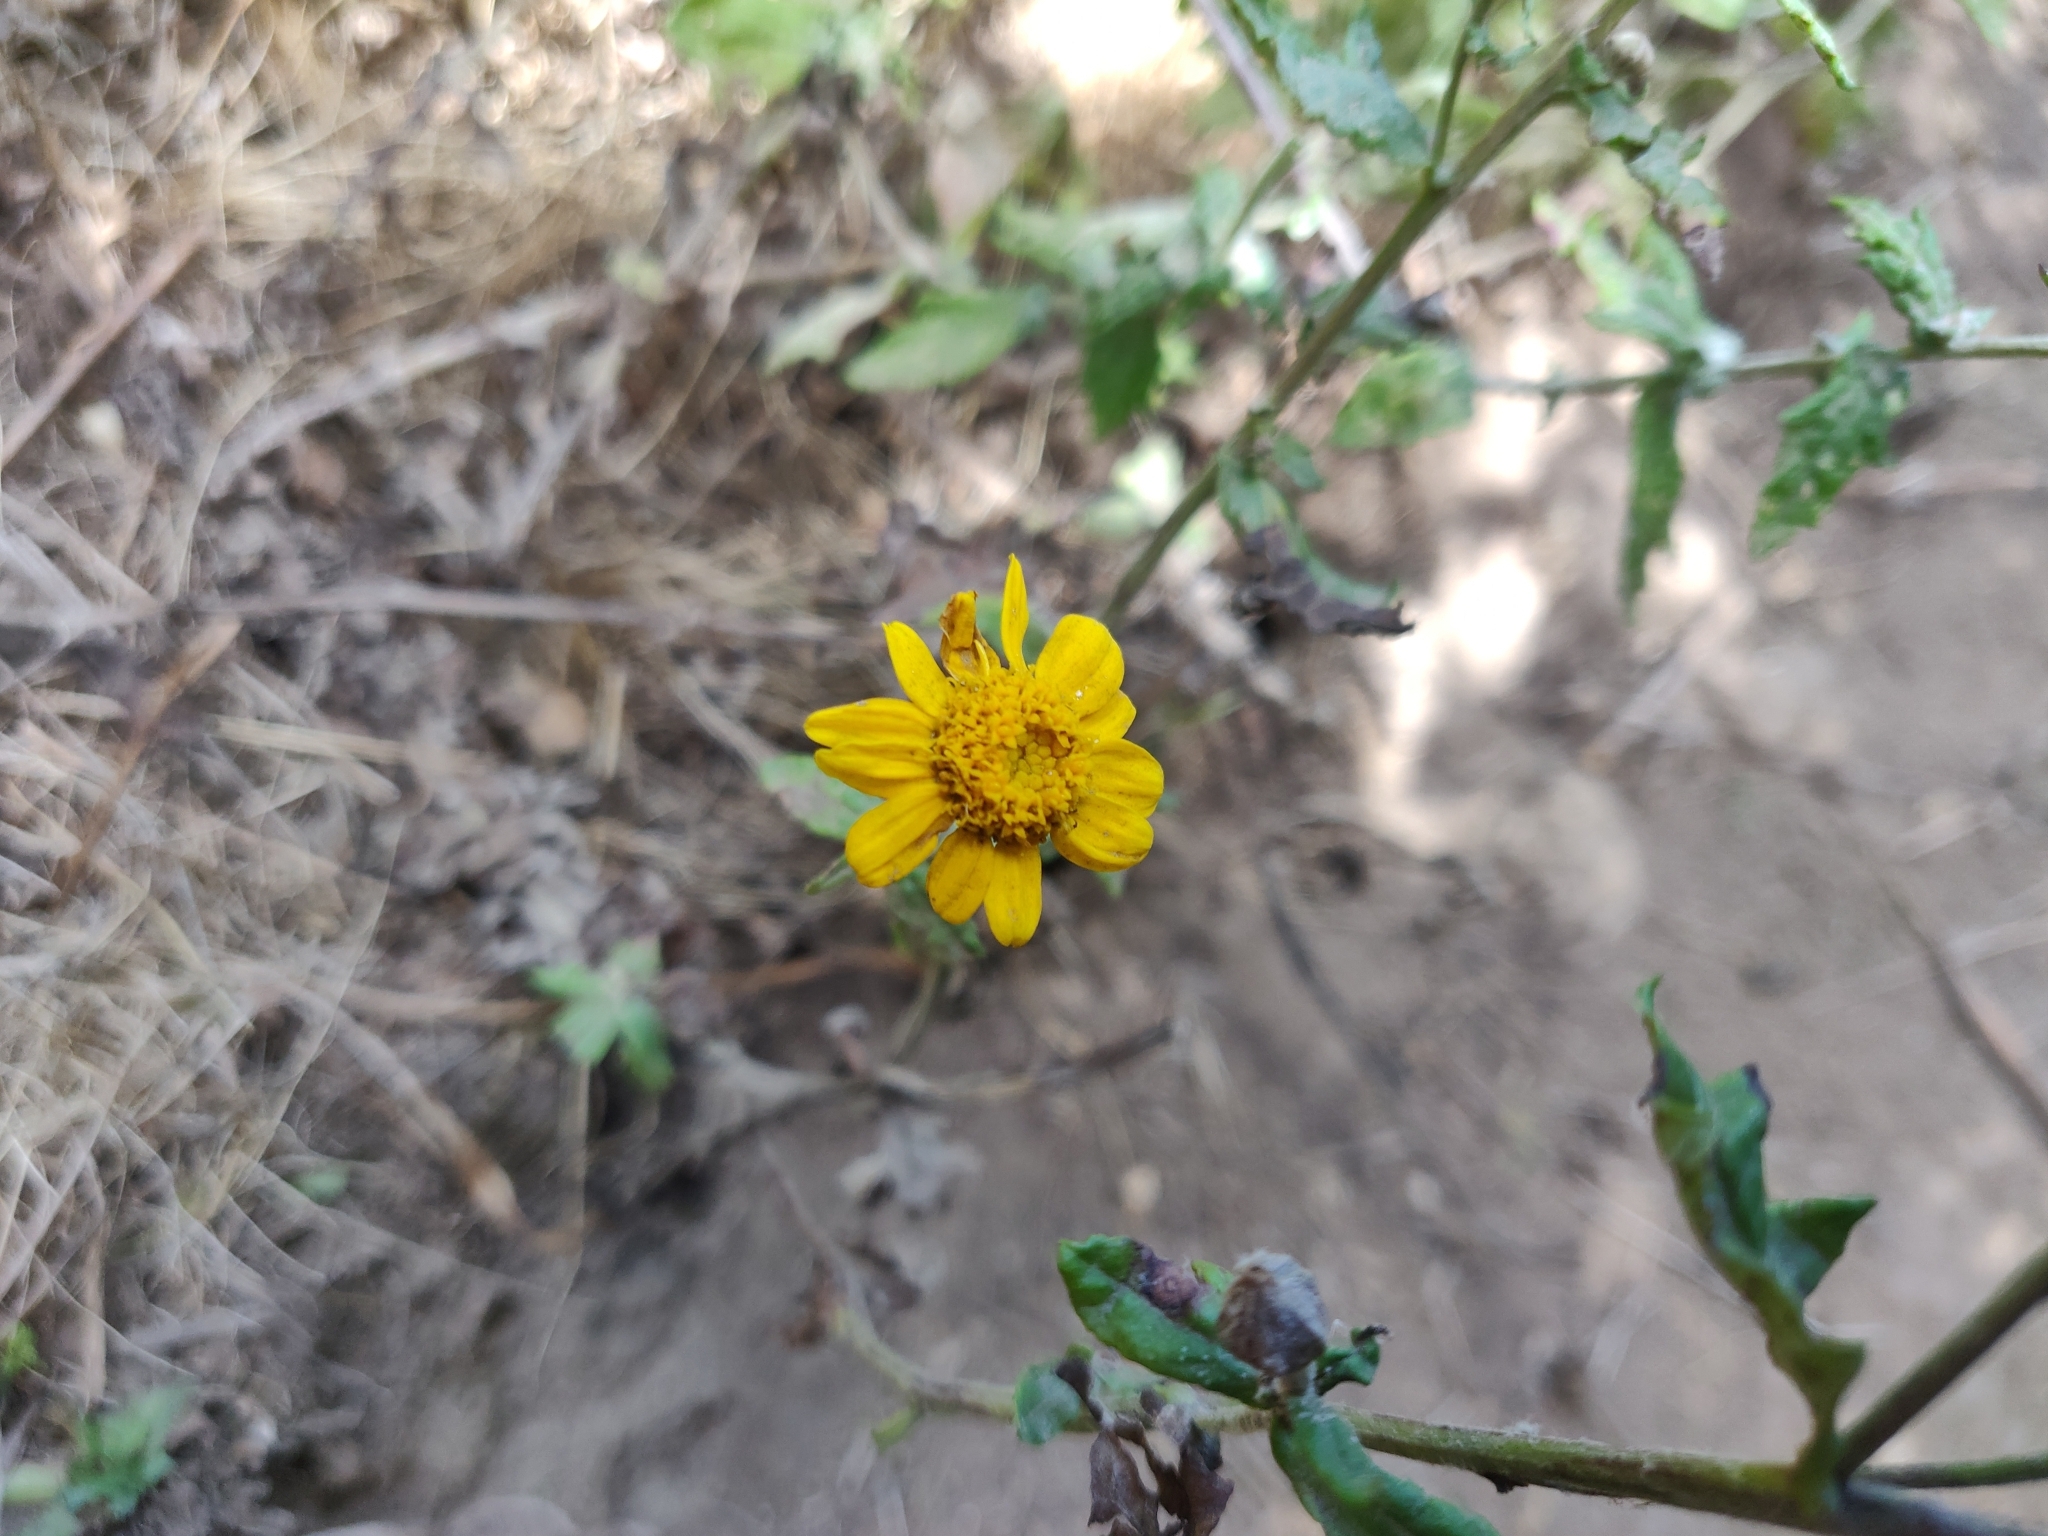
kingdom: Plantae
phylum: Tracheophyta
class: Magnoliopsida
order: Asterales
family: Asteraceae
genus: Eriophyllum
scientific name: Eriophyllum lanatum
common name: Common woolly-sunflower
